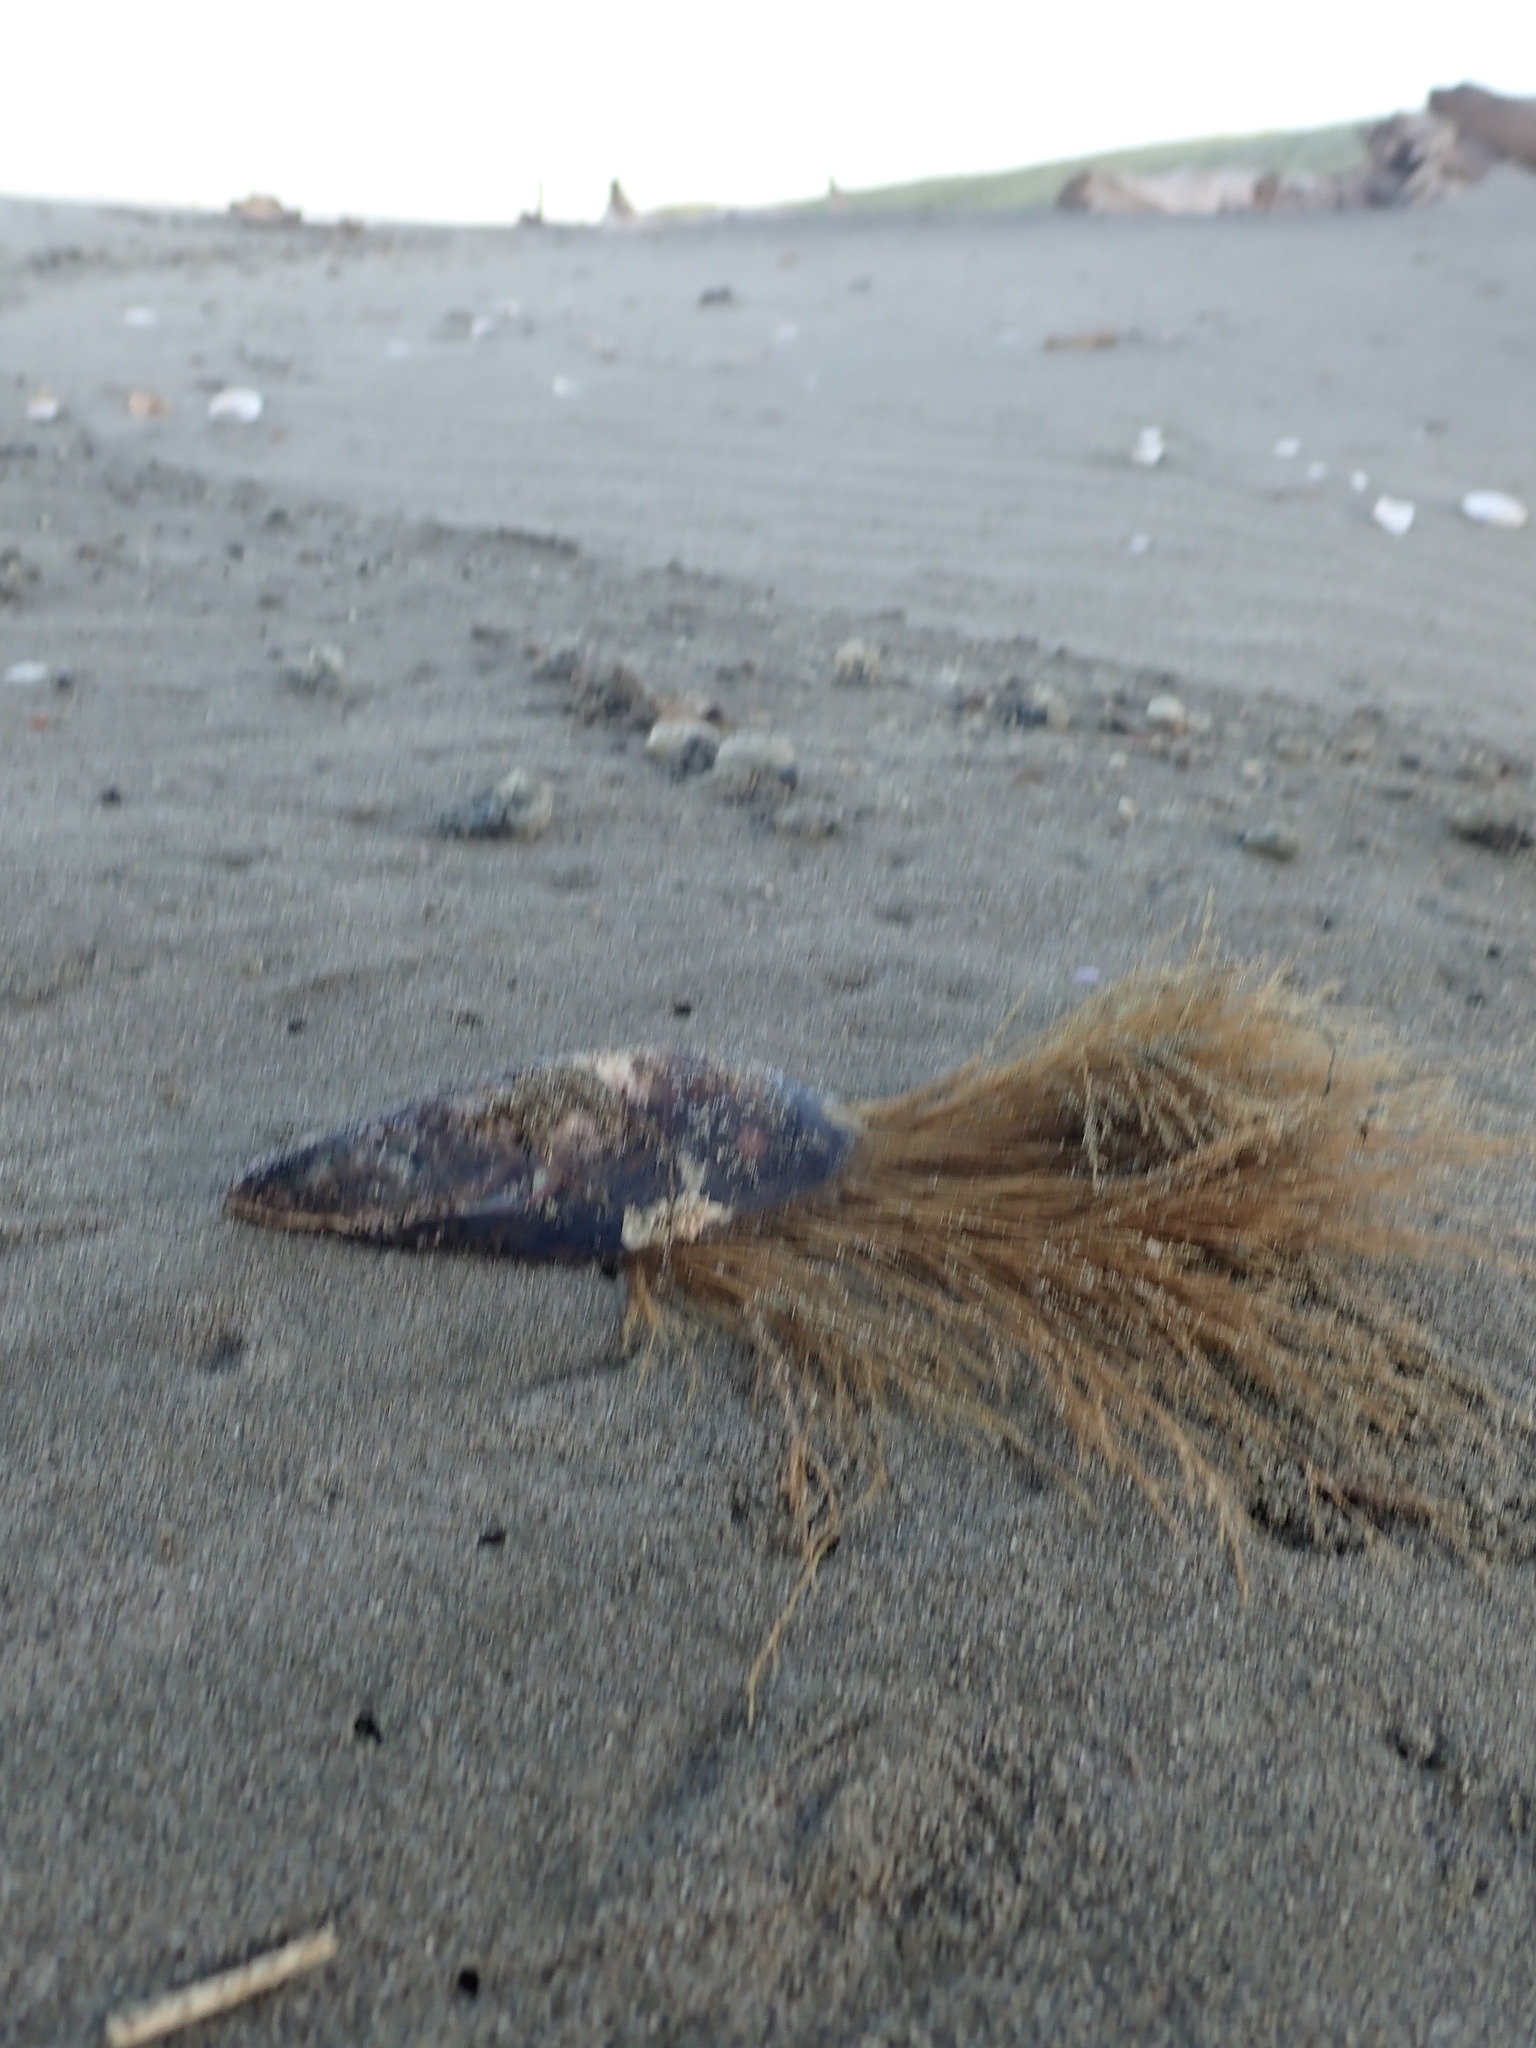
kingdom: Animalia
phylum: Cnidaria
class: Hydrozoa
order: Leptothecata
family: Sertulariidae
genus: Amphisbetia
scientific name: Amphisbetia bispinosa
